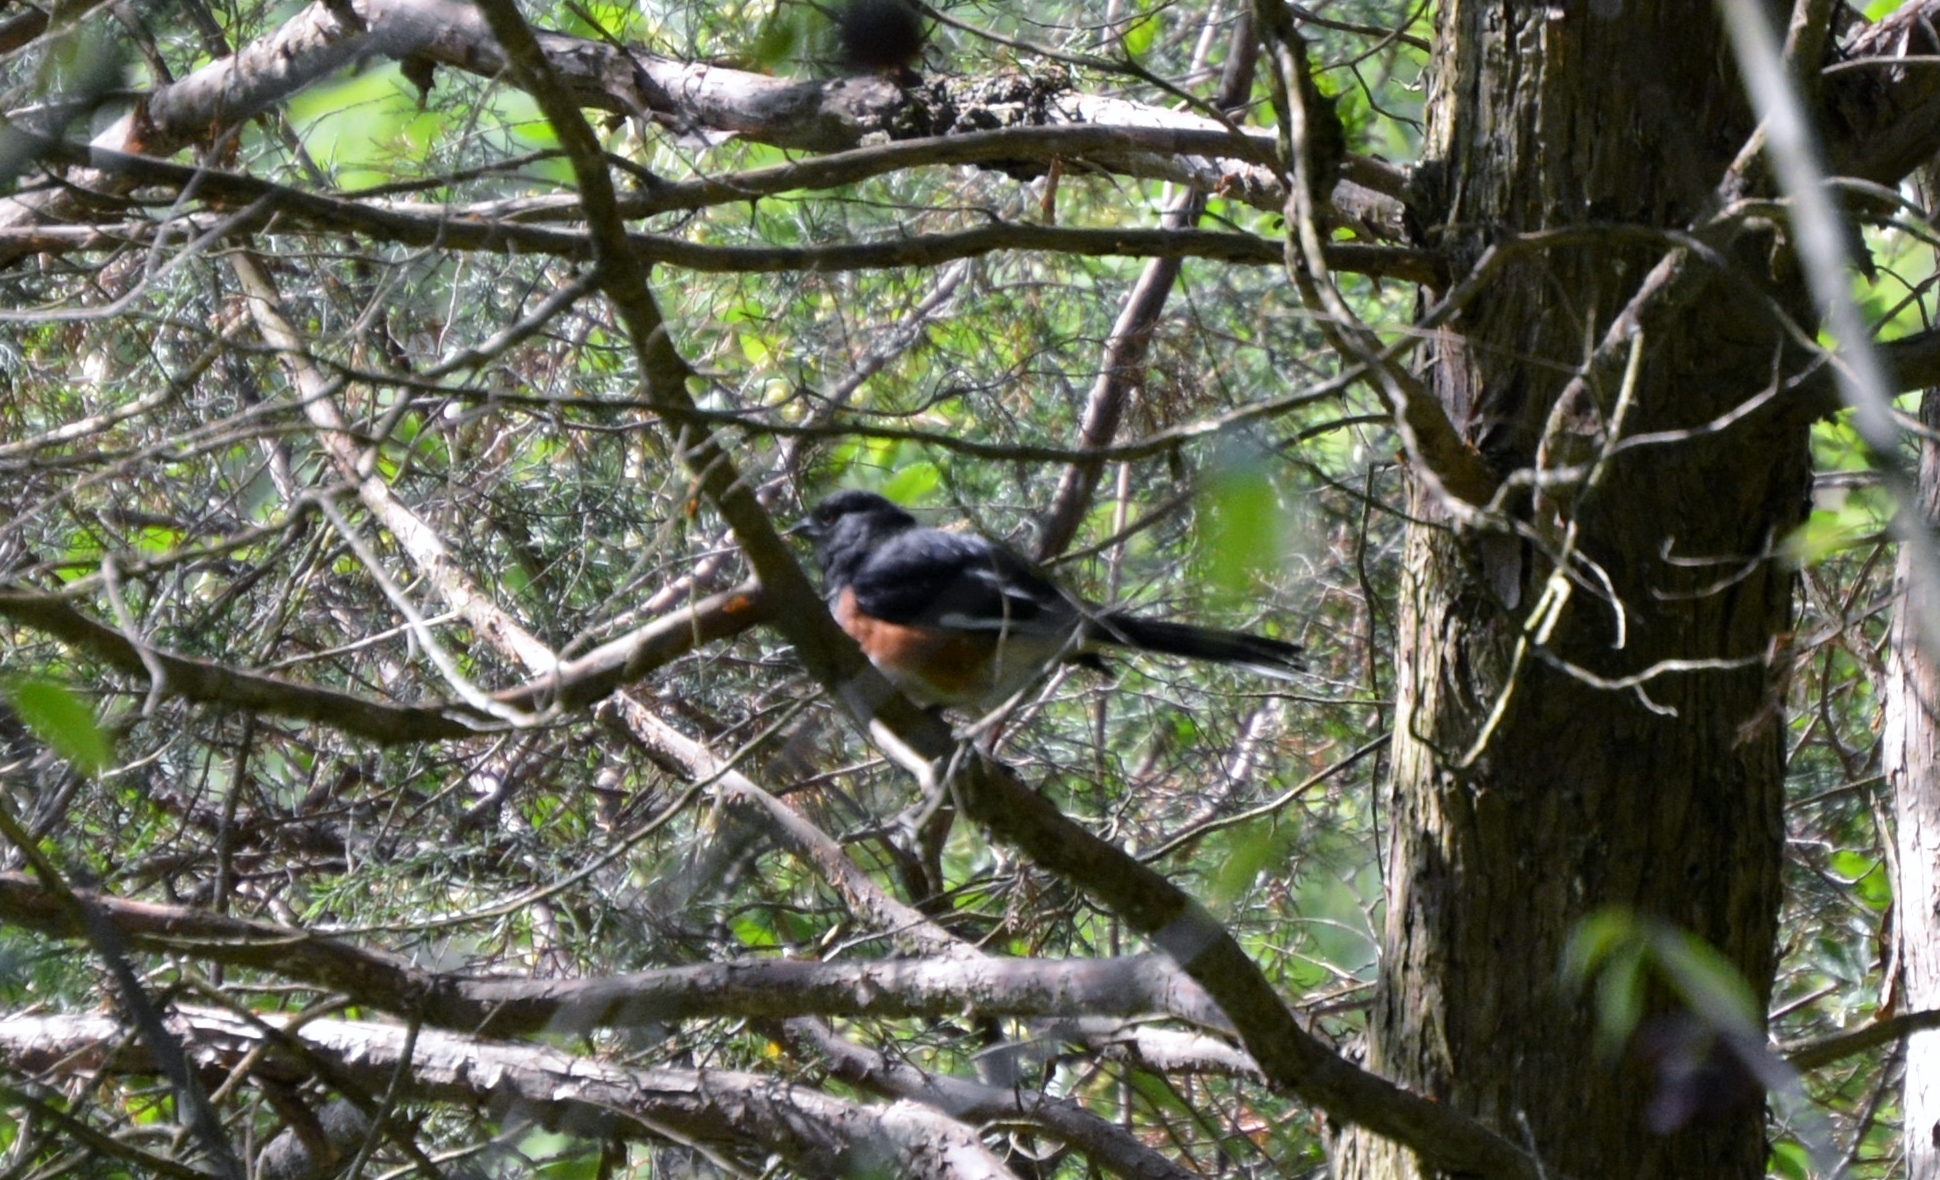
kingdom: Animalia
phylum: Chordata
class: Aves
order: Passeriformes
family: Passerellidae
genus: Pipilo
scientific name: Pipilo erythrophthalmus
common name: Eastern towhee
